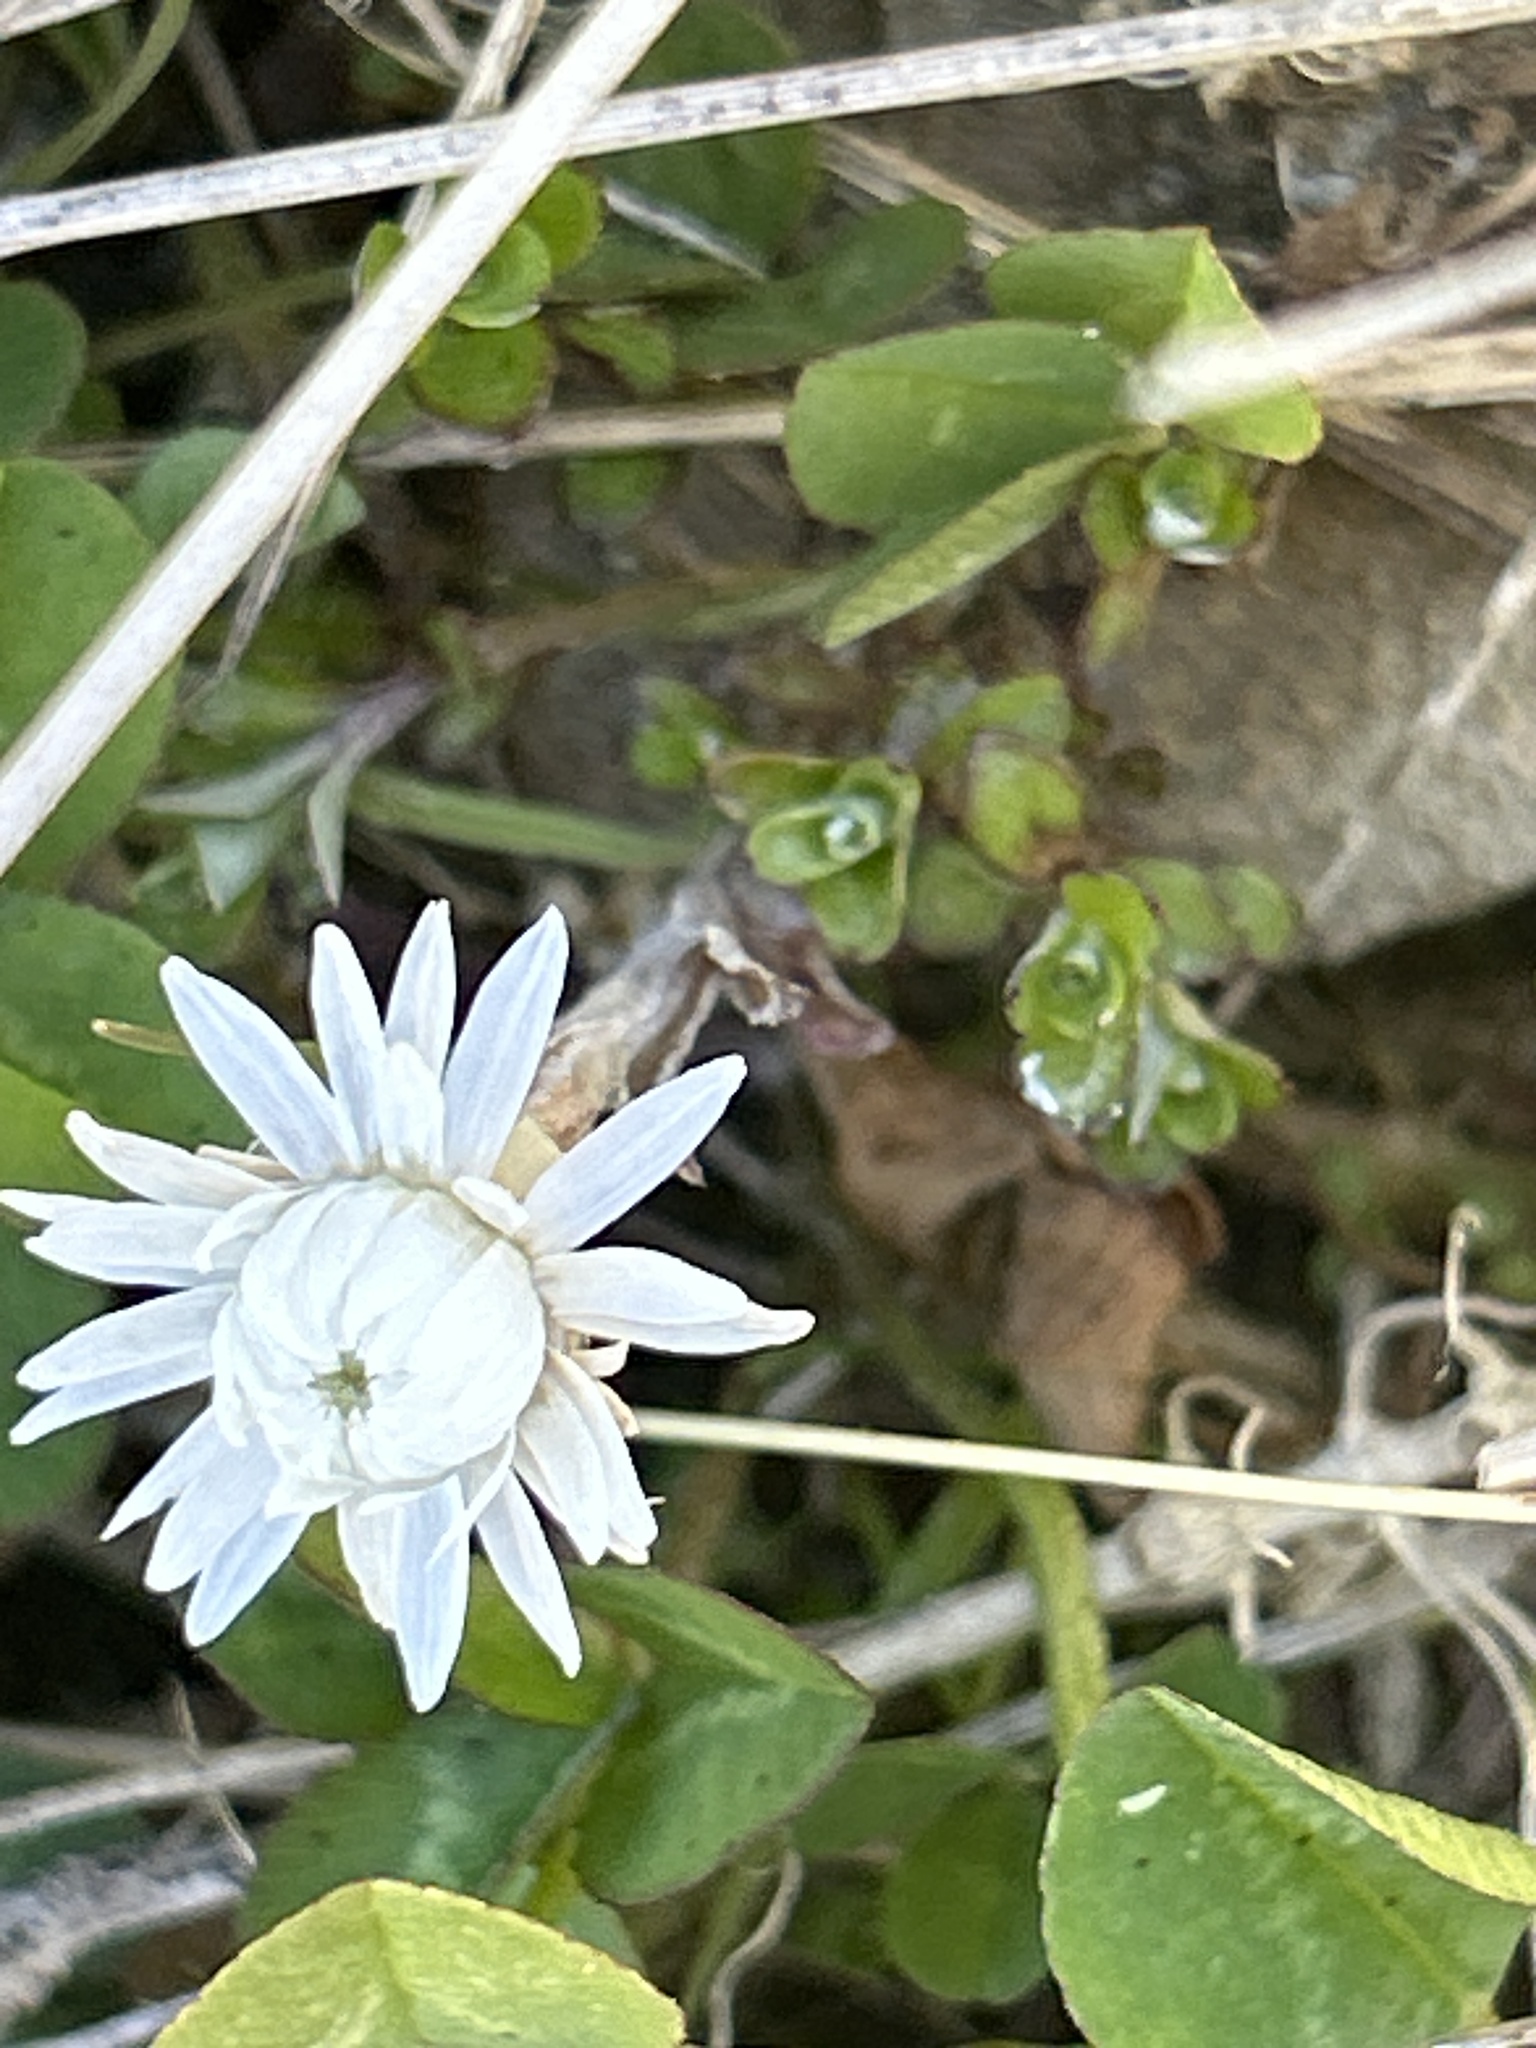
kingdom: Plantae
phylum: Tracheophyta
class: Magnoliopsida
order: Asterales
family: Asteraceae
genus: Anaphalioides
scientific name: Anaphalioides bellidioides
